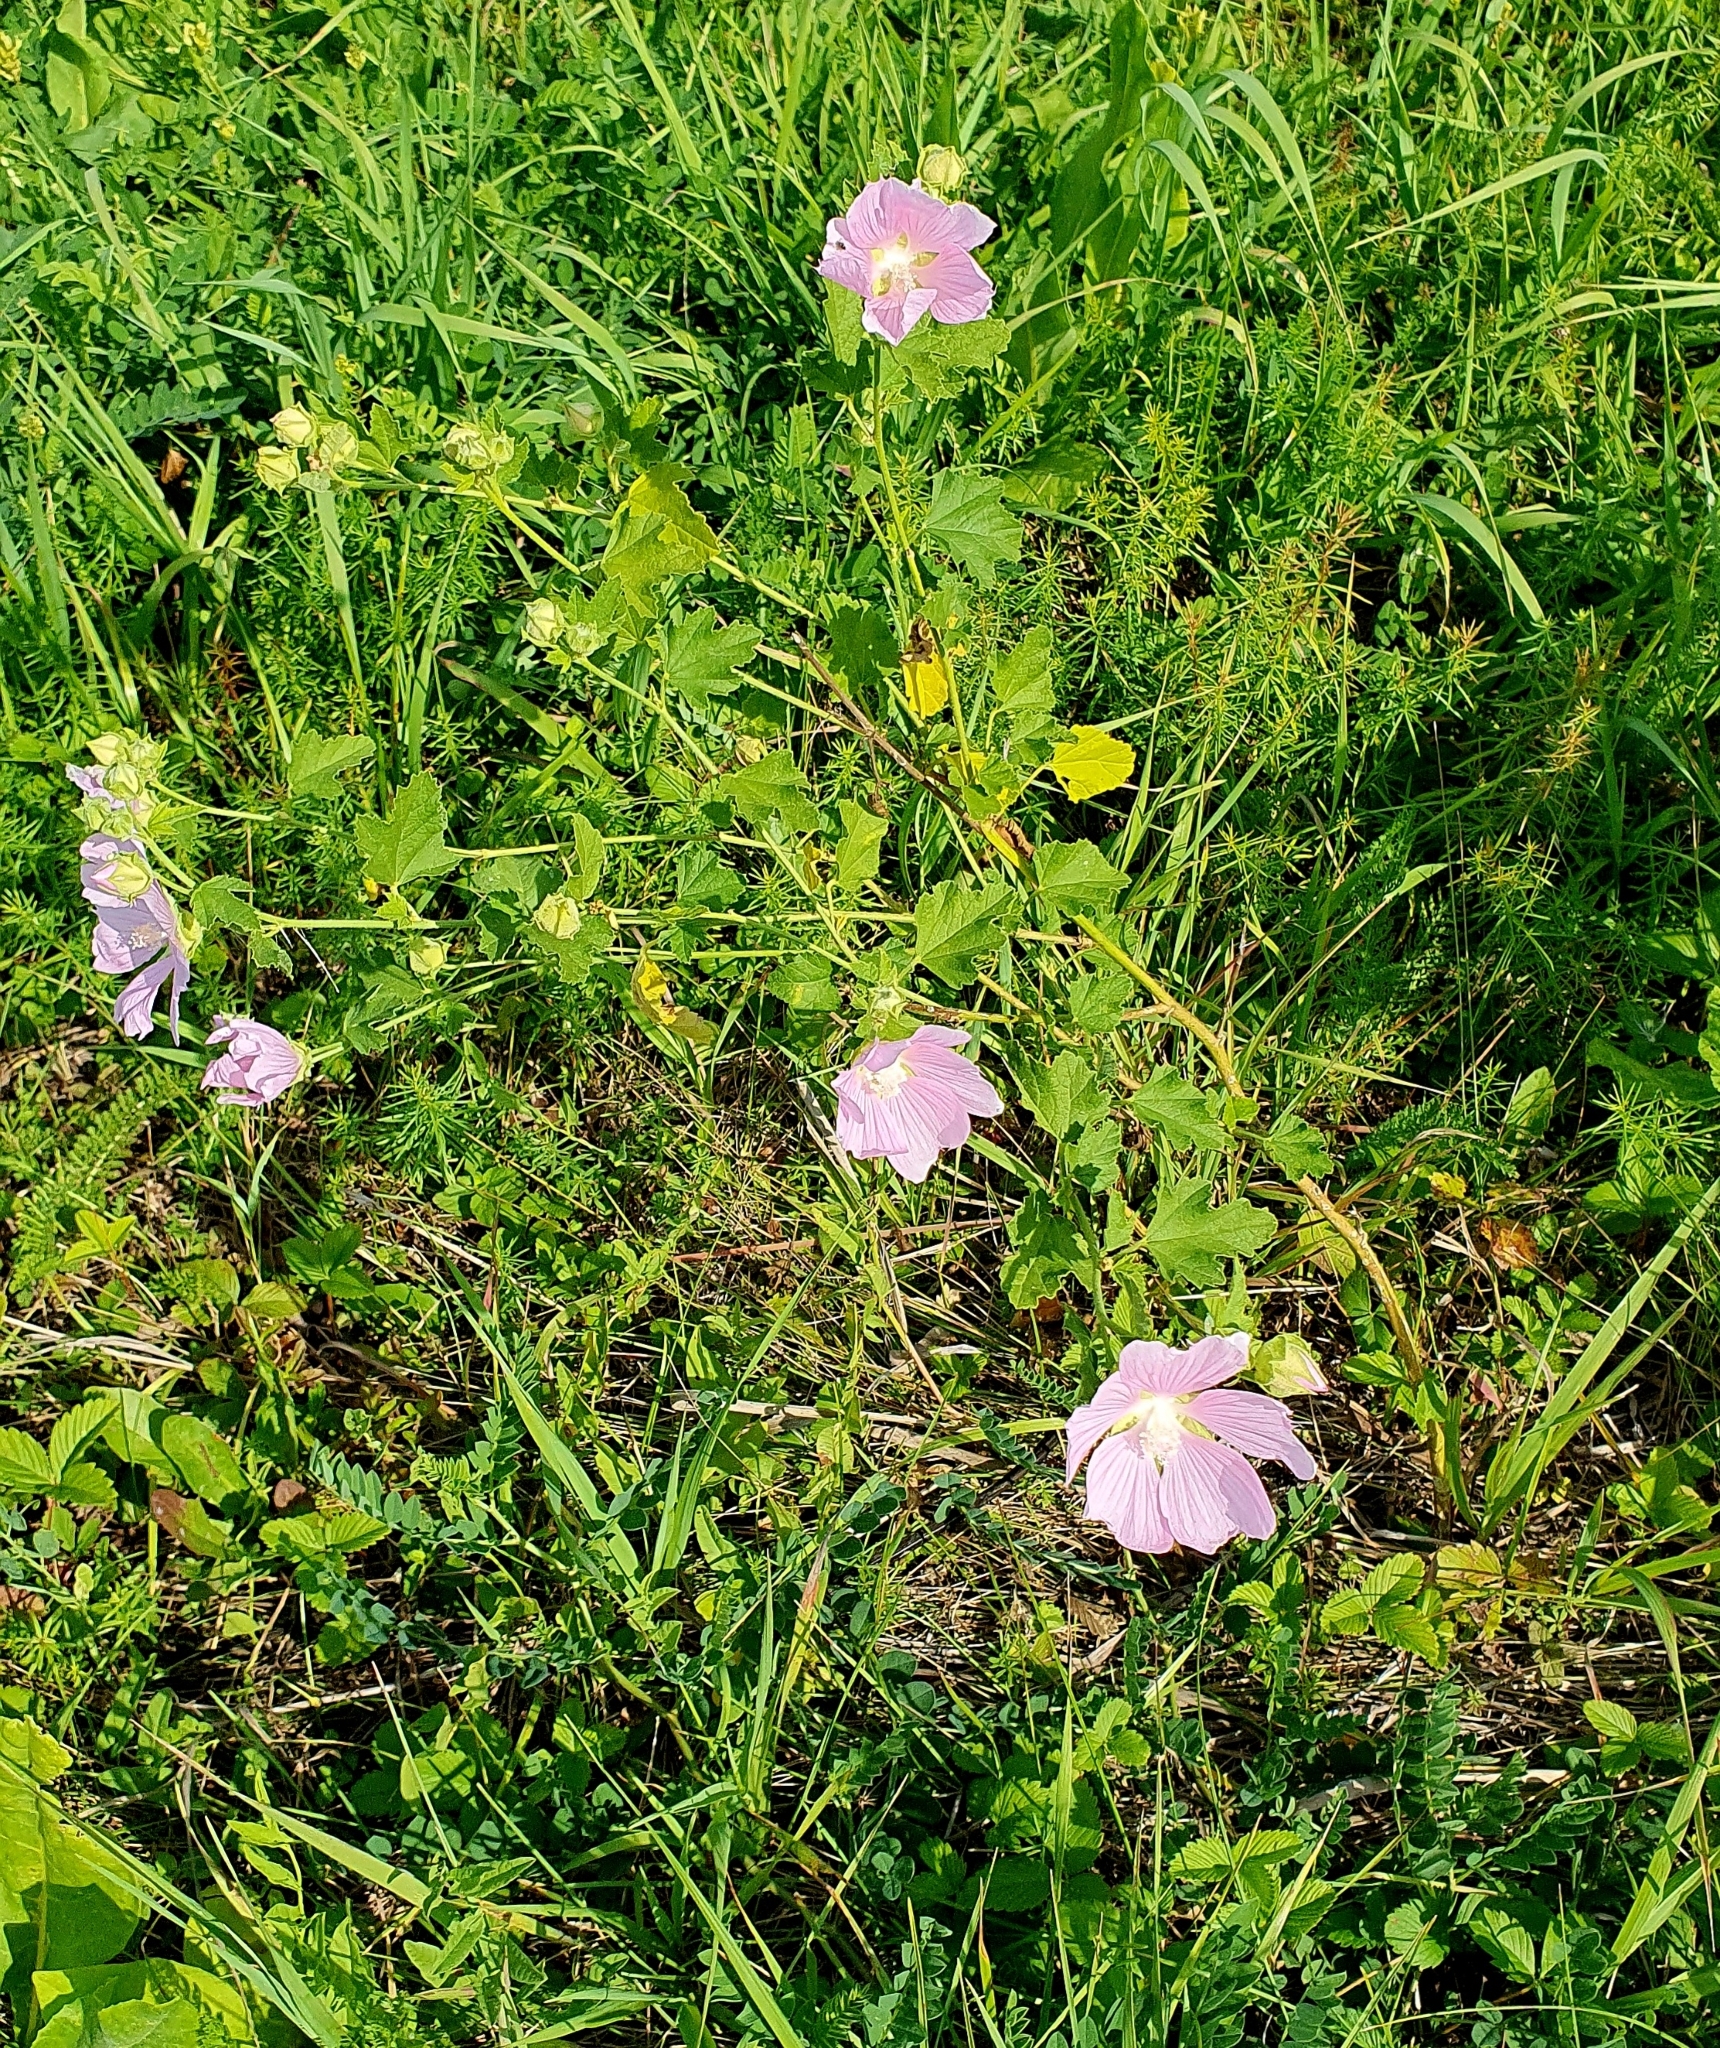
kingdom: Plantae
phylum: Tracheophyta
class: Magnoliopsida
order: Malvales
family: Malvaceae
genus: Malva
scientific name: Malva thuringiaca
